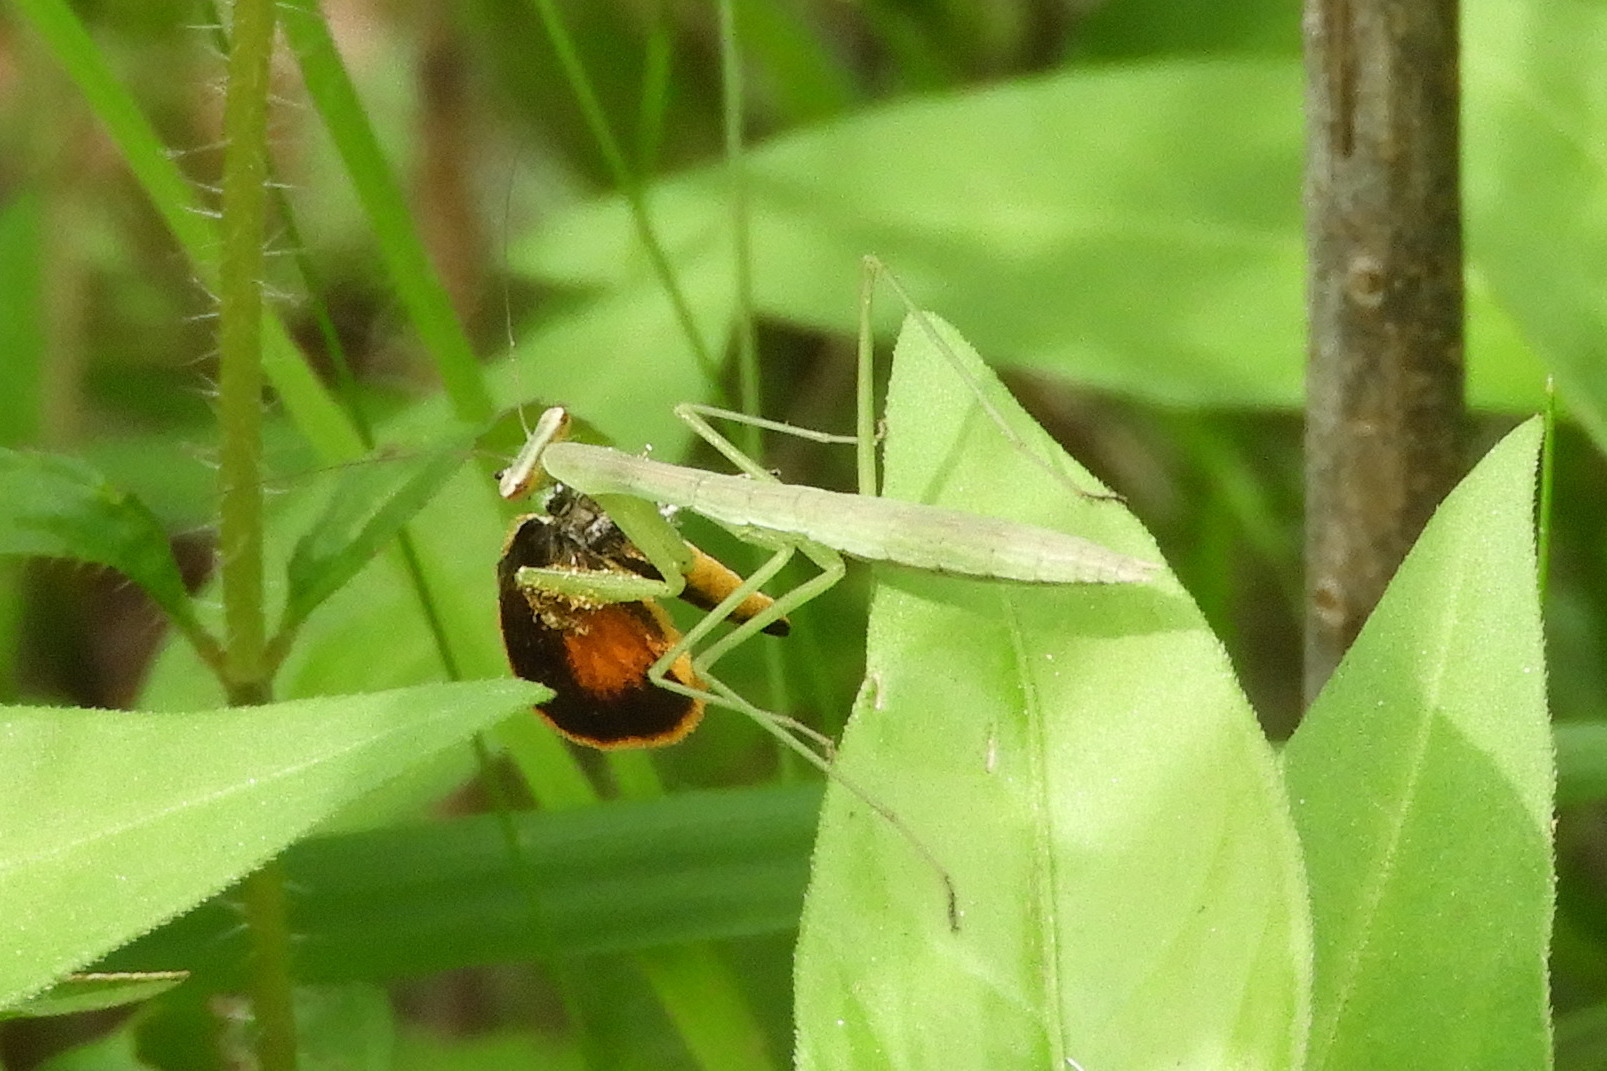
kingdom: Animalia
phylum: Arthropoda
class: Insecta
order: Lepidoptera
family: Hesperiidae
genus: Ancyloxypha
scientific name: Ancyloxypha numitor
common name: Least skipper
